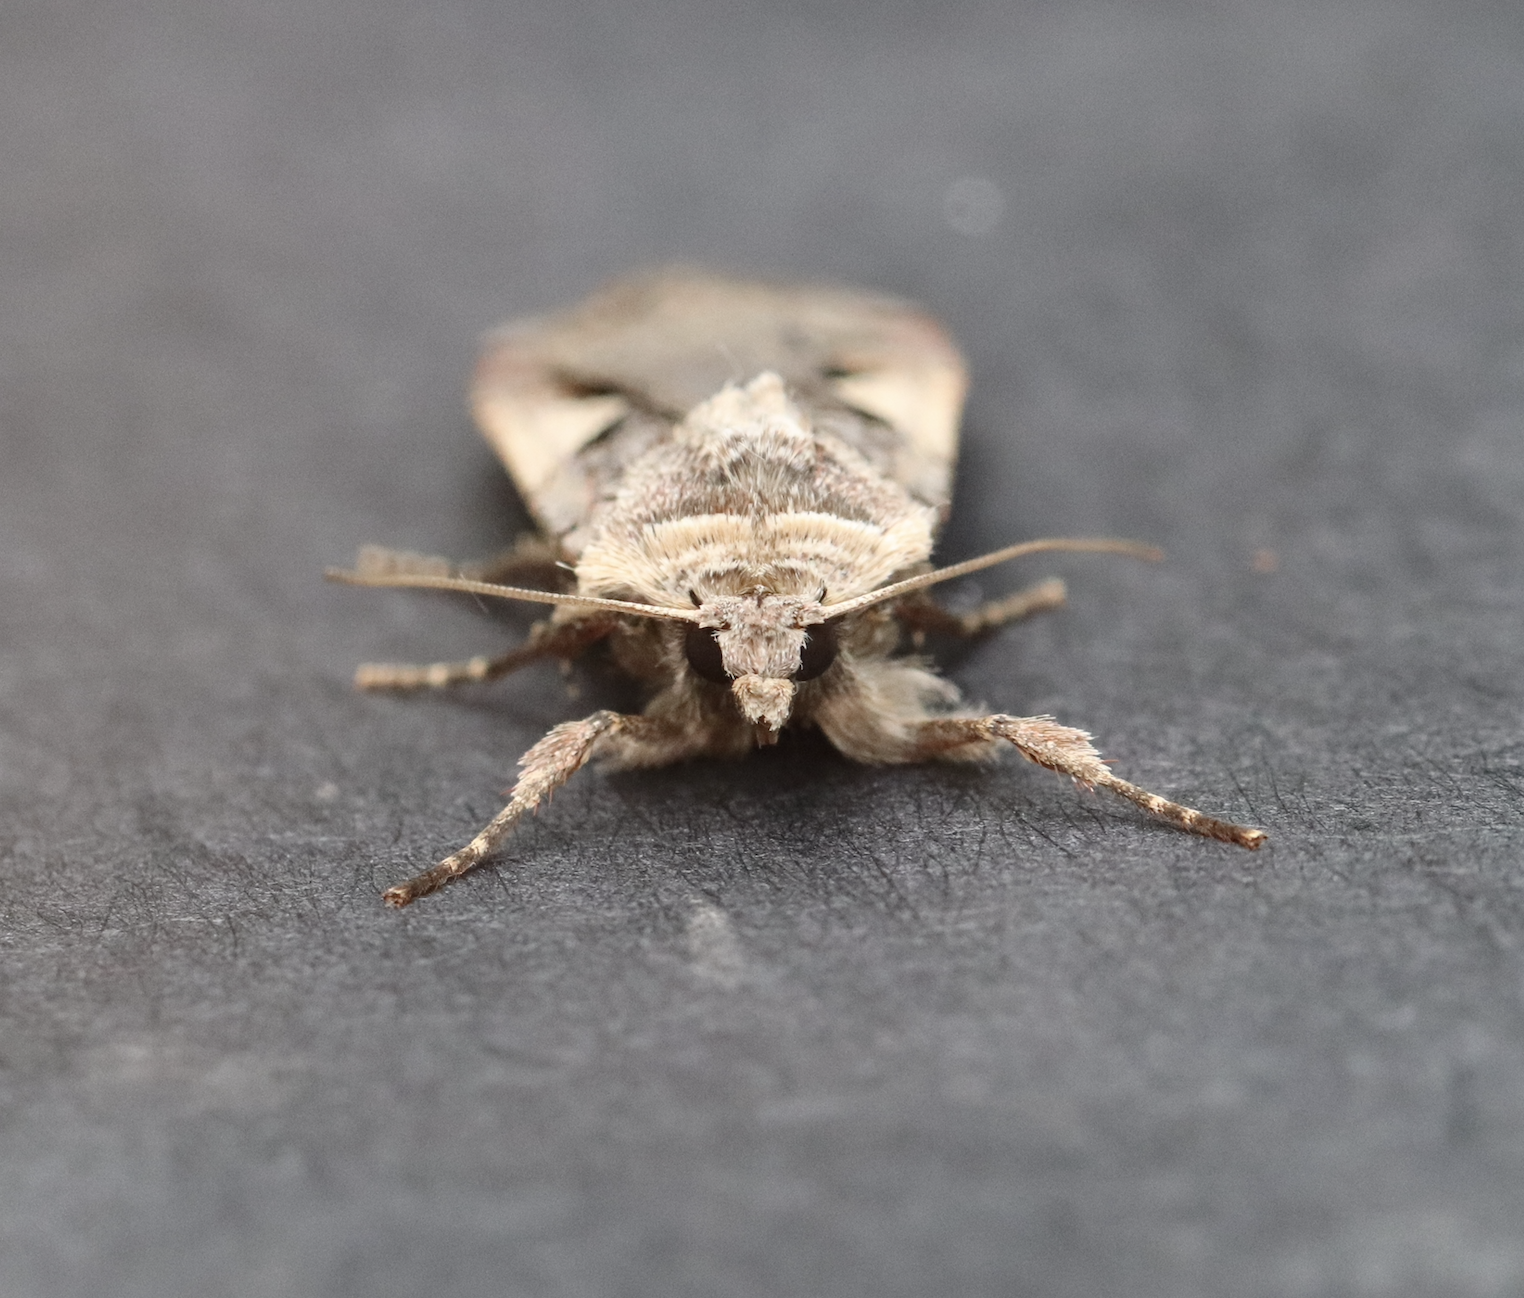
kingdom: Animalia
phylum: Arthropoda
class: Insecta
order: Lepidoptera
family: Noctuidae
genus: Xestia
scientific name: Xestia c-nigrum
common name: Setaceous hebrew character
